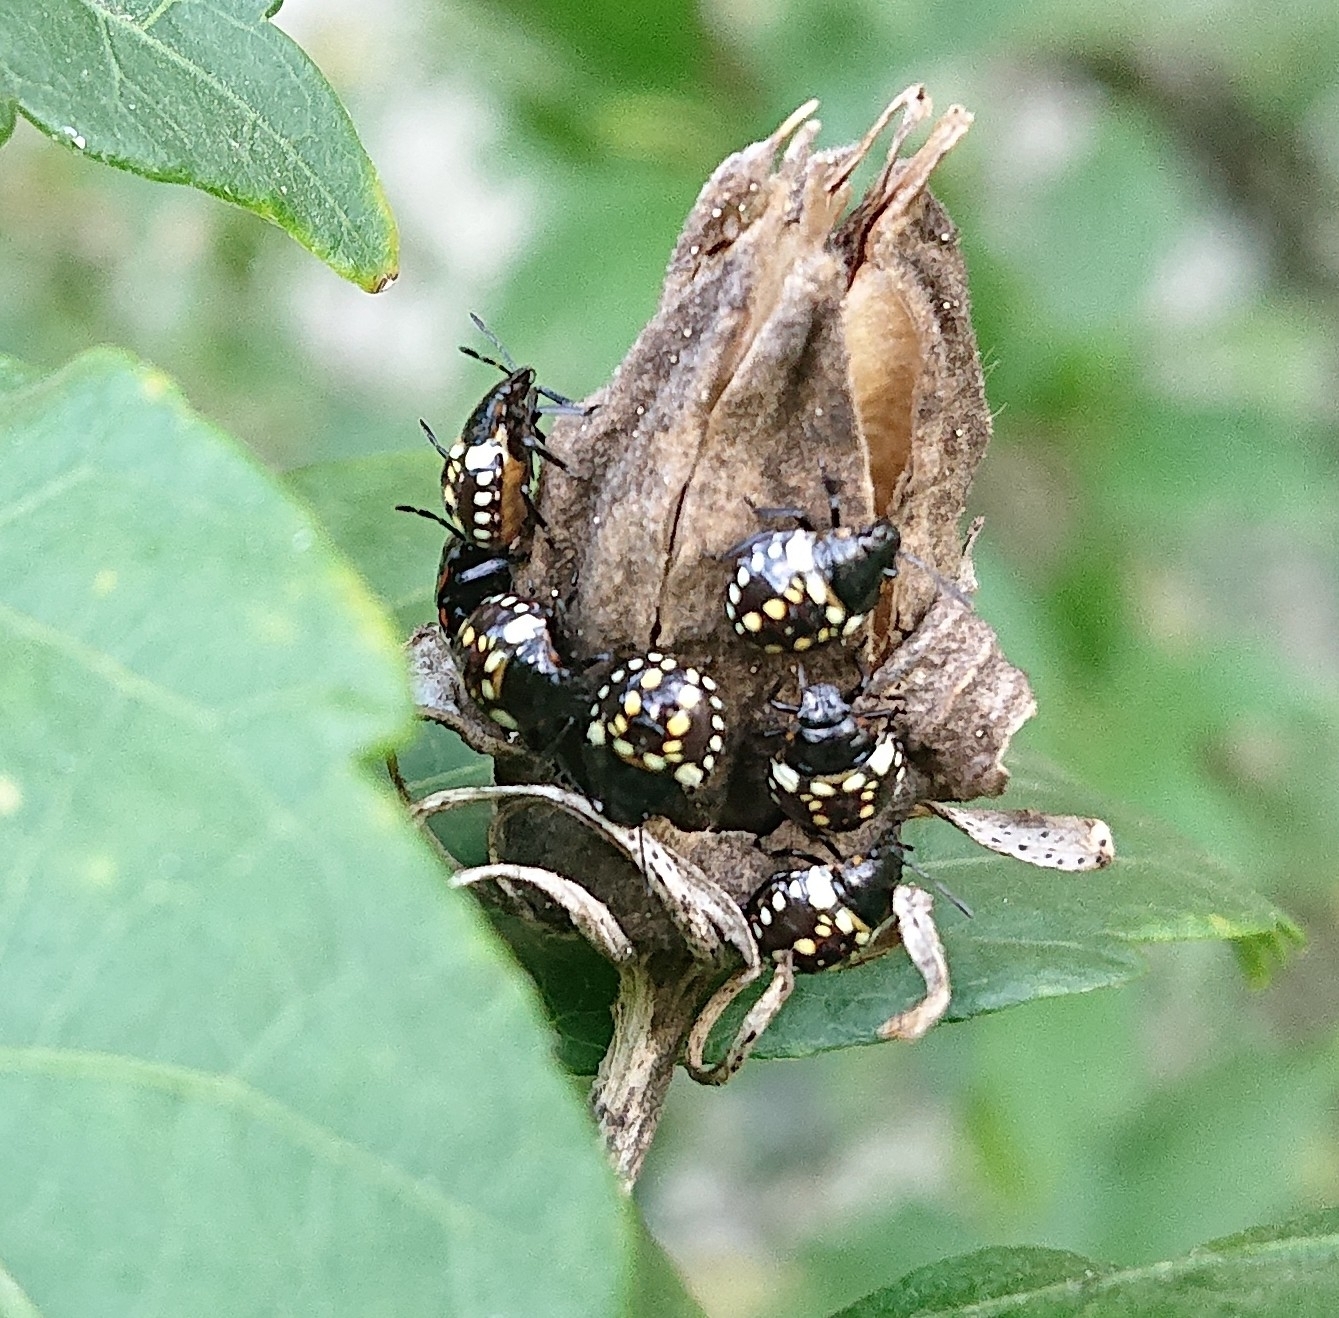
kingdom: Animalia
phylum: Arthropoda
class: Insecta
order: Hemiptera
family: Pentatomidae
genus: Nezara
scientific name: Nezara viridula
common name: Southern green stink bug
